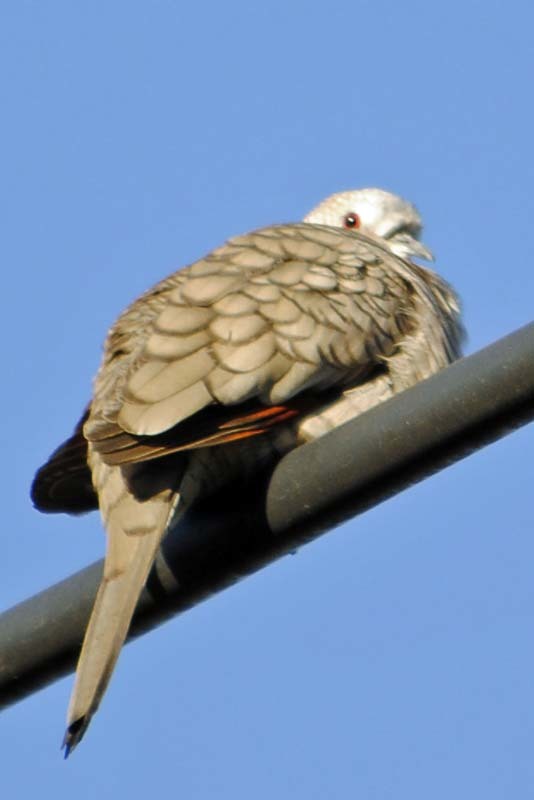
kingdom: Animalia
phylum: Chordata
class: Aves
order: Columbiformes
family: Columbidae
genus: Columbina
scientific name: Columbina inca
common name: Inca dove
